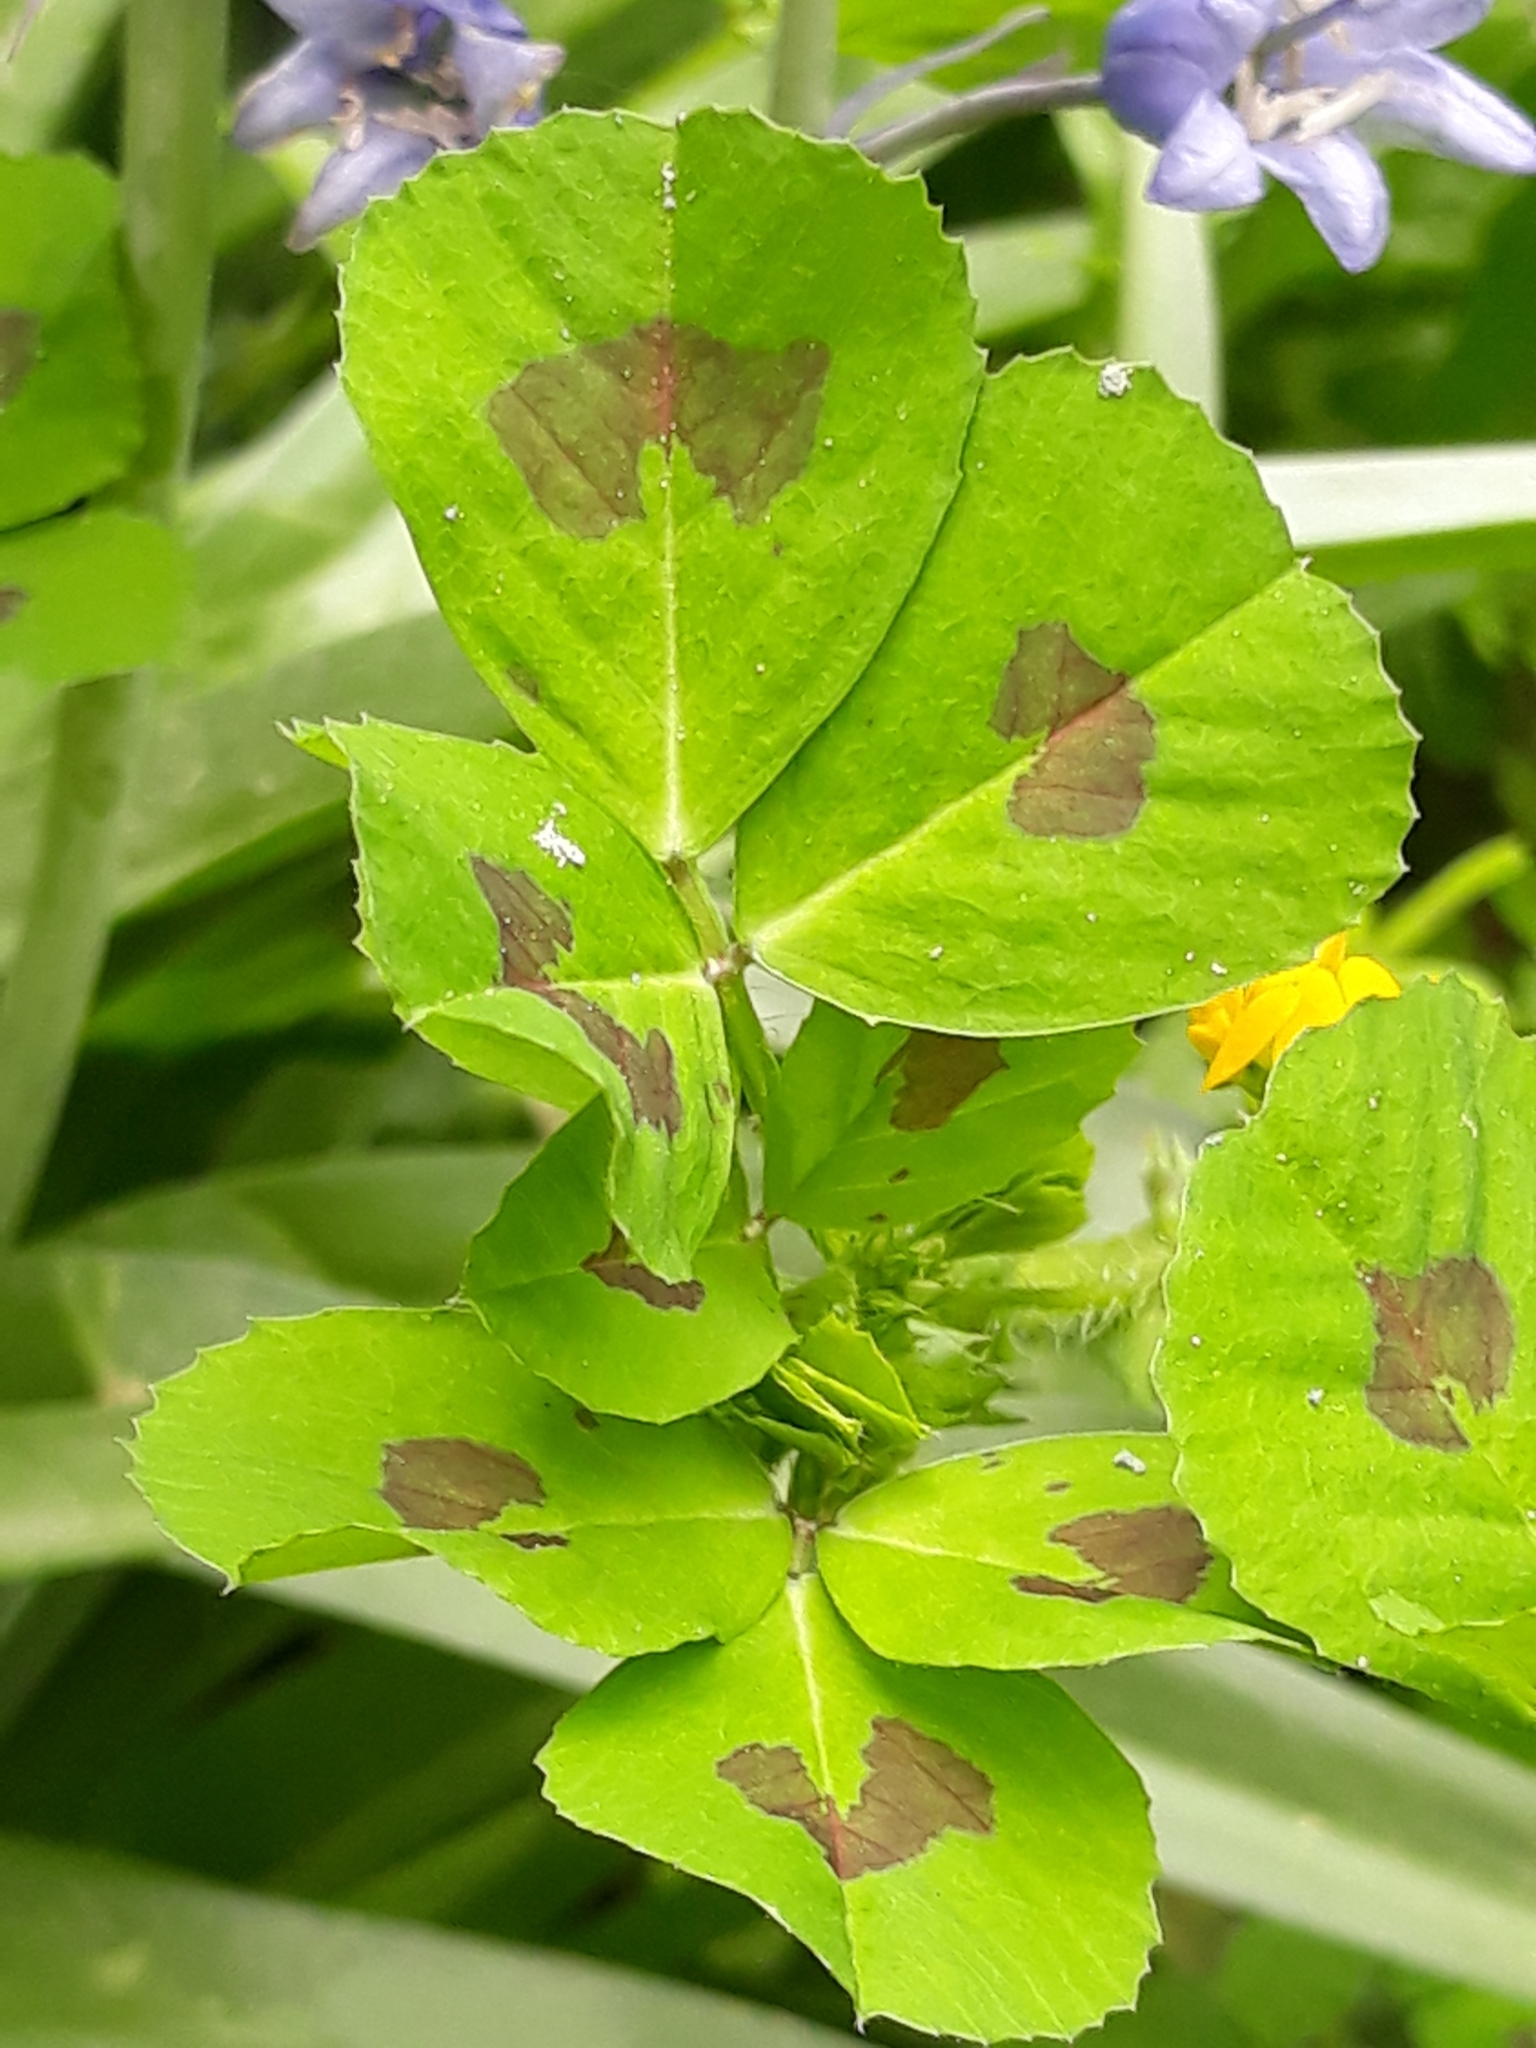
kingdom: Plantae
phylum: Tracheophyta
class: Magnoliopsida
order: Fabales
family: Fabaceae
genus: Medicago
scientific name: Medicago arabica
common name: Spotted medick
